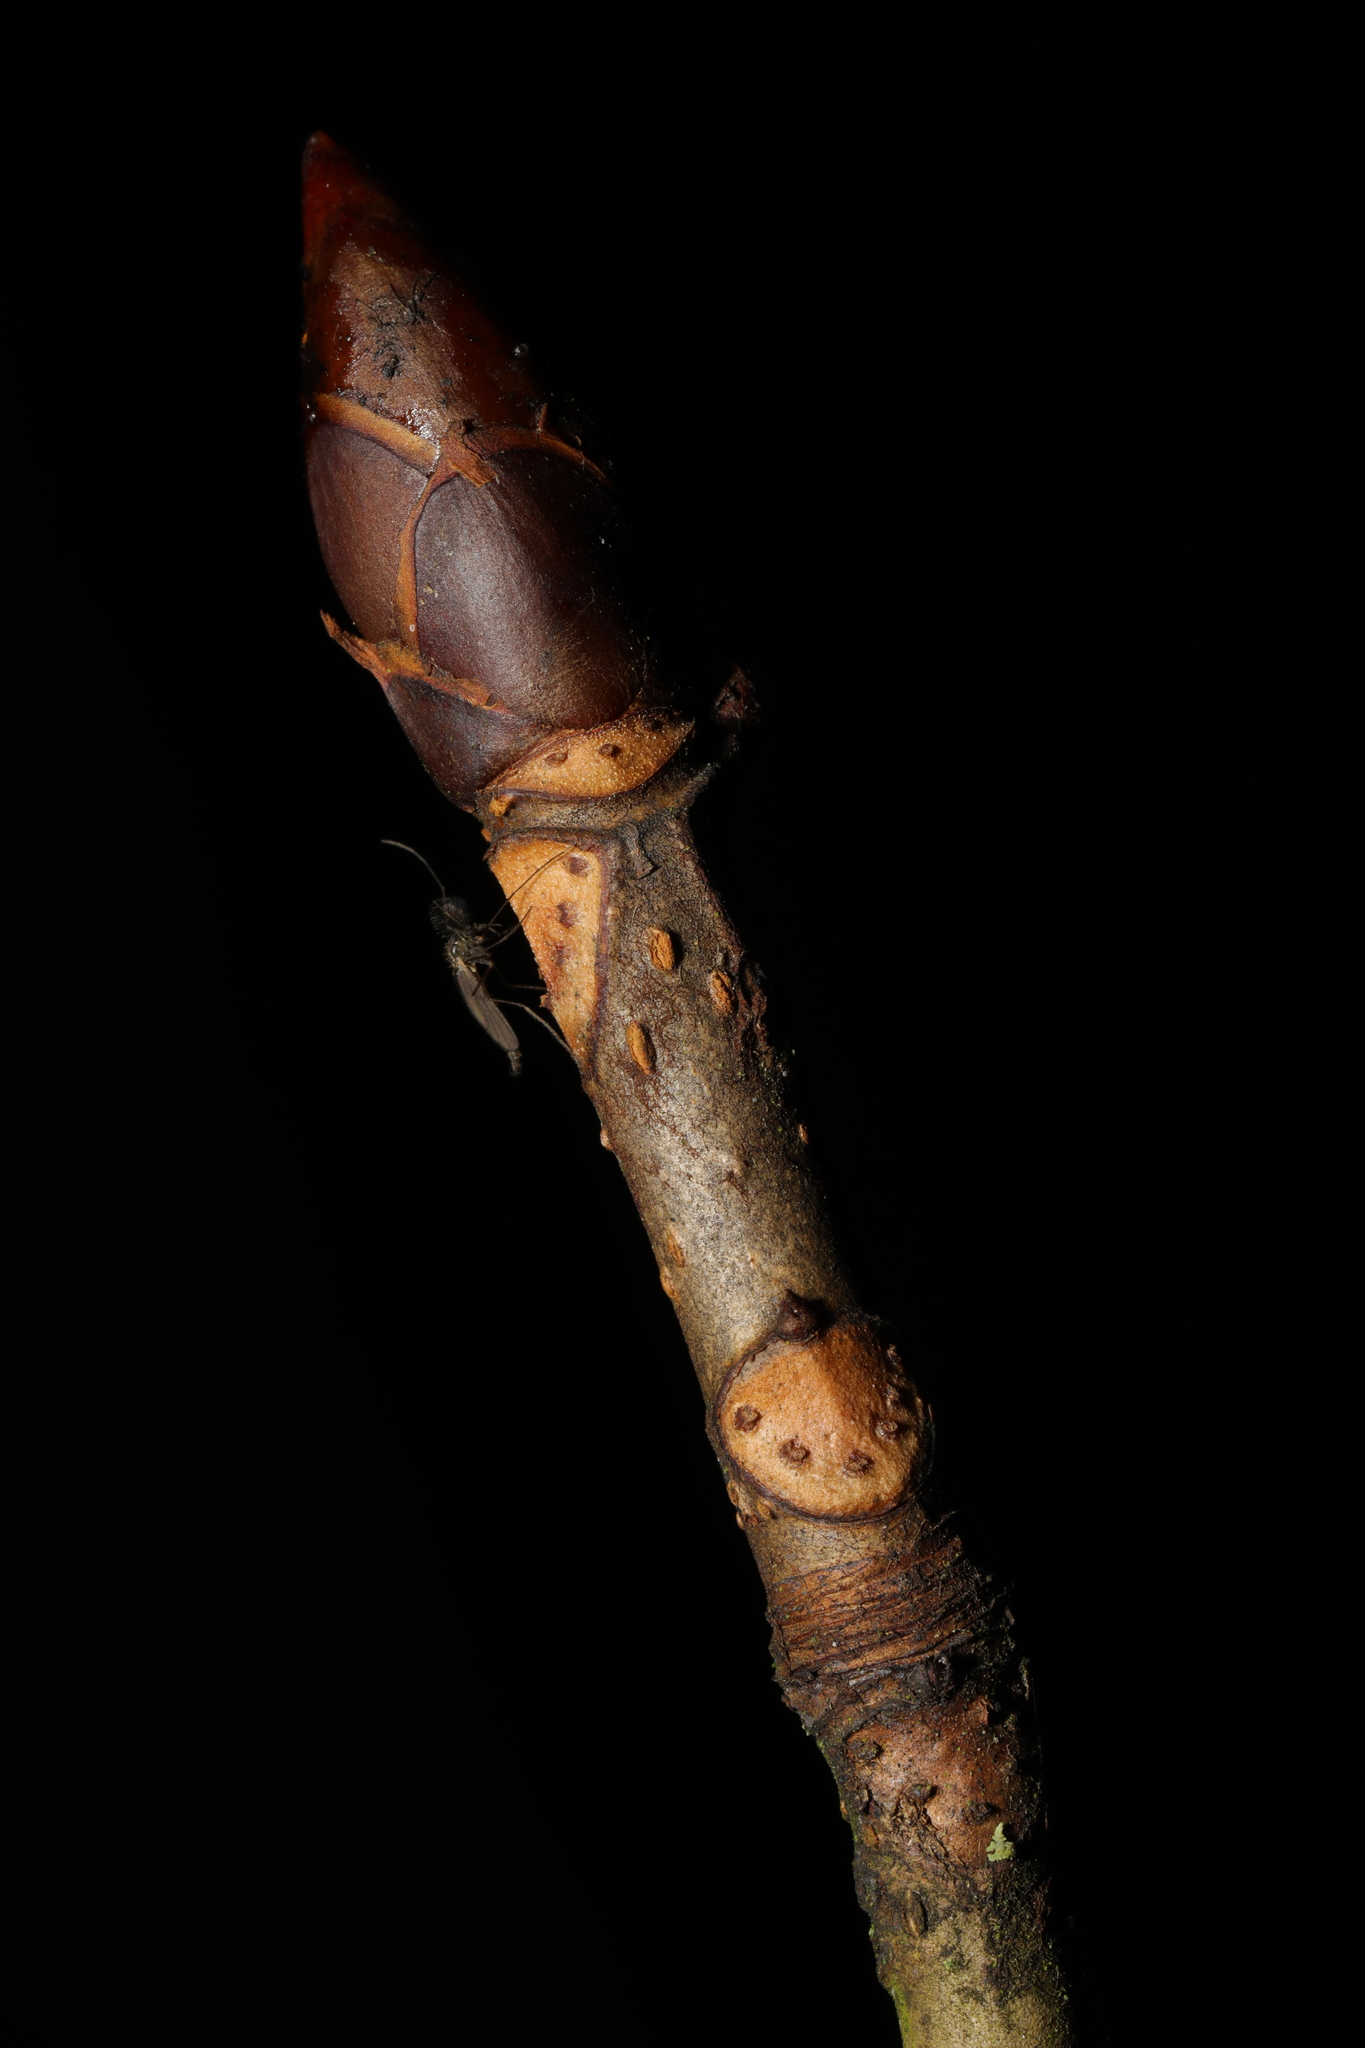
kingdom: Plantae
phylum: Tracheophyta
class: Magnoliopsida
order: Sapindales
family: Sapindaceae
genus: Aesculus
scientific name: Aesculus hippocastanum
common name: Horse-chestnut
